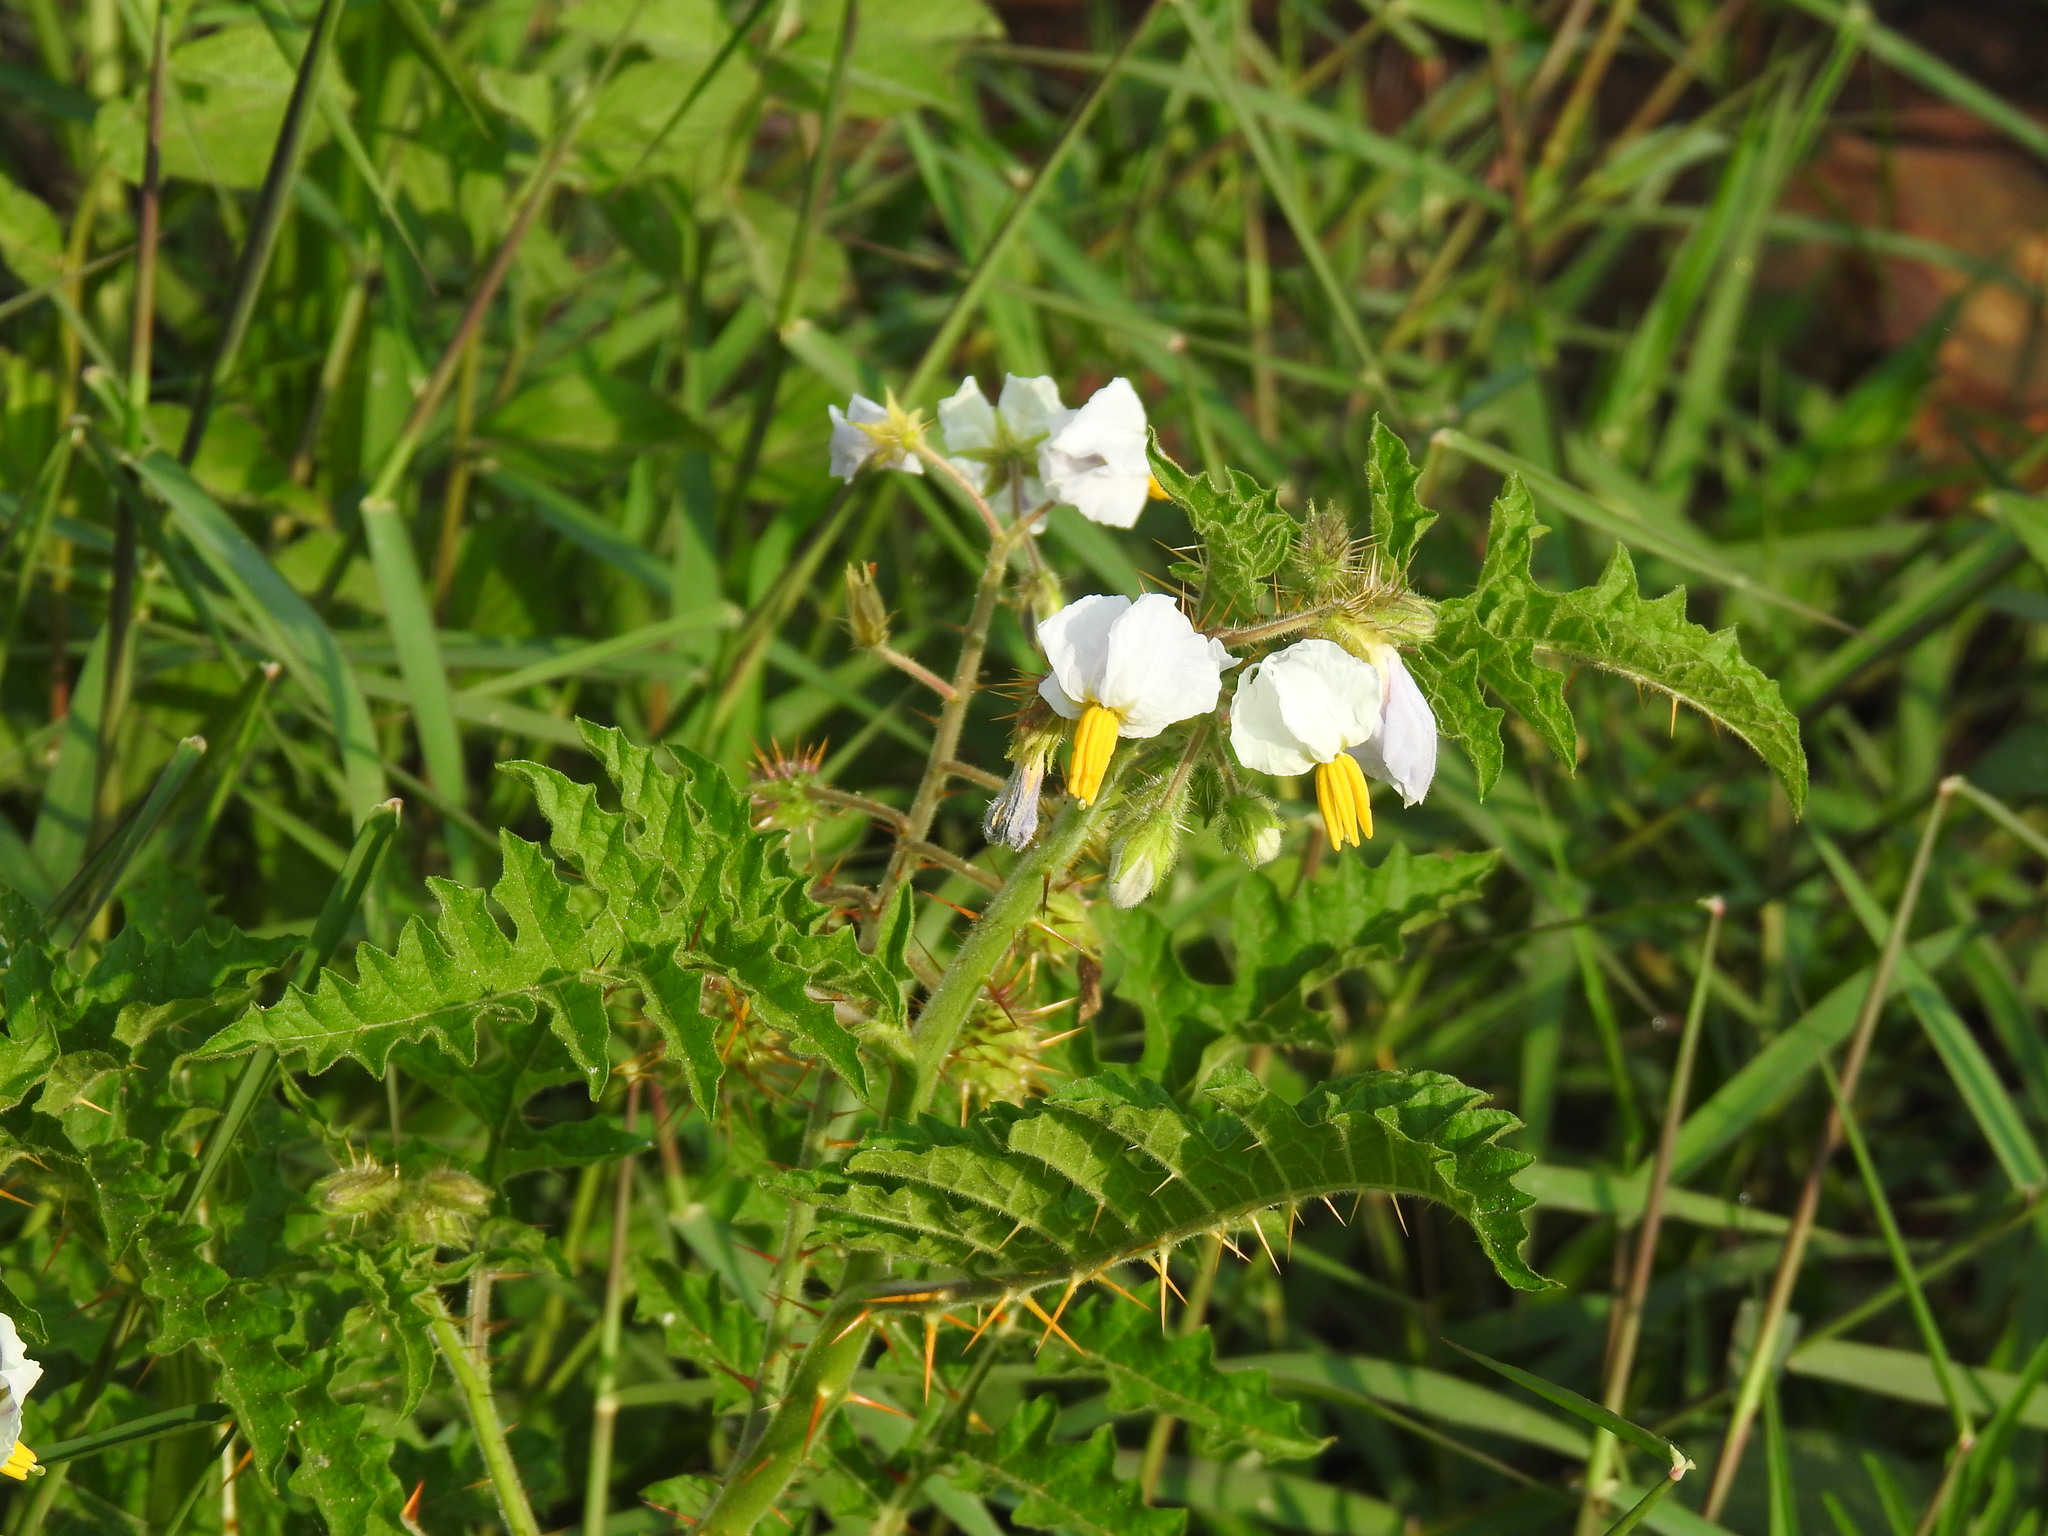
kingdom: Plantae
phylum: Tracheophyta
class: Magnoliopsida
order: Solanales
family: Solanaceae
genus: Solanum
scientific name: Solanum sisymbriifolium
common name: Red buffalo-bur
